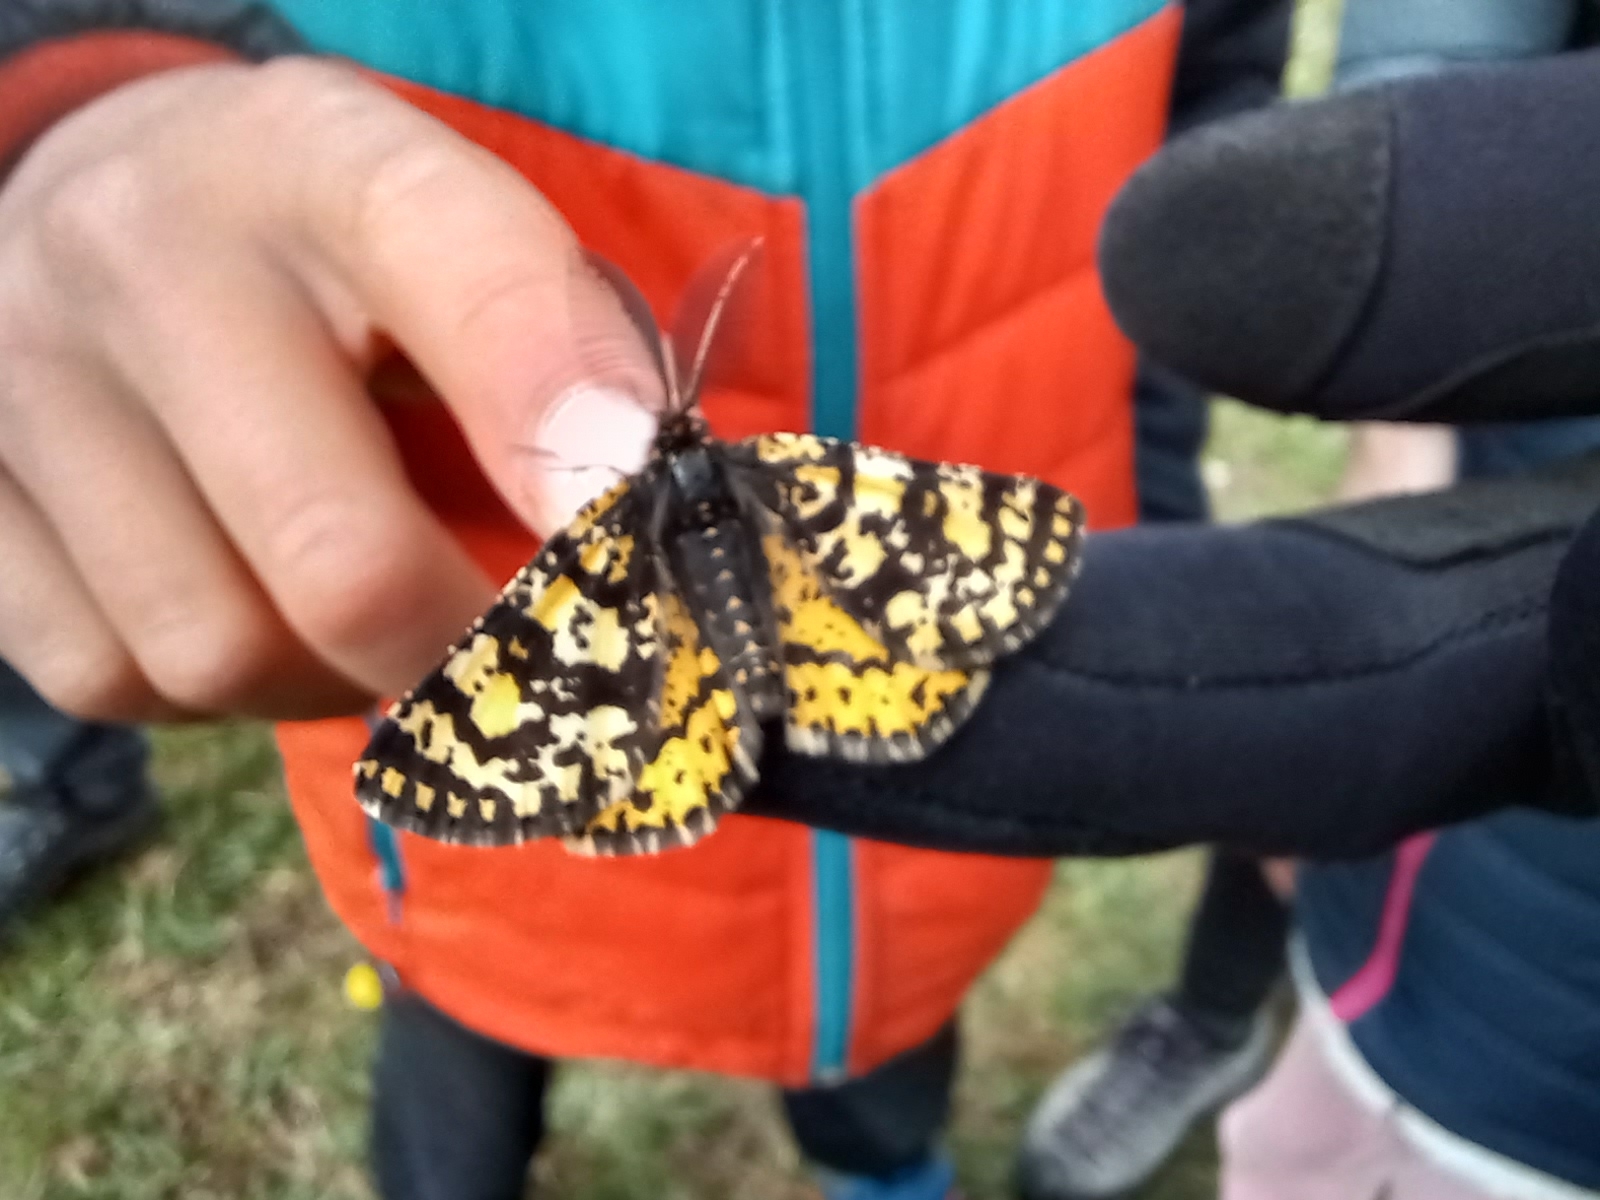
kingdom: Animalia
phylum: Arthropoda
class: Insecta
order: Lepidoptera
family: Geometridae
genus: Eurranthis
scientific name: Eurranthis plummistaria
